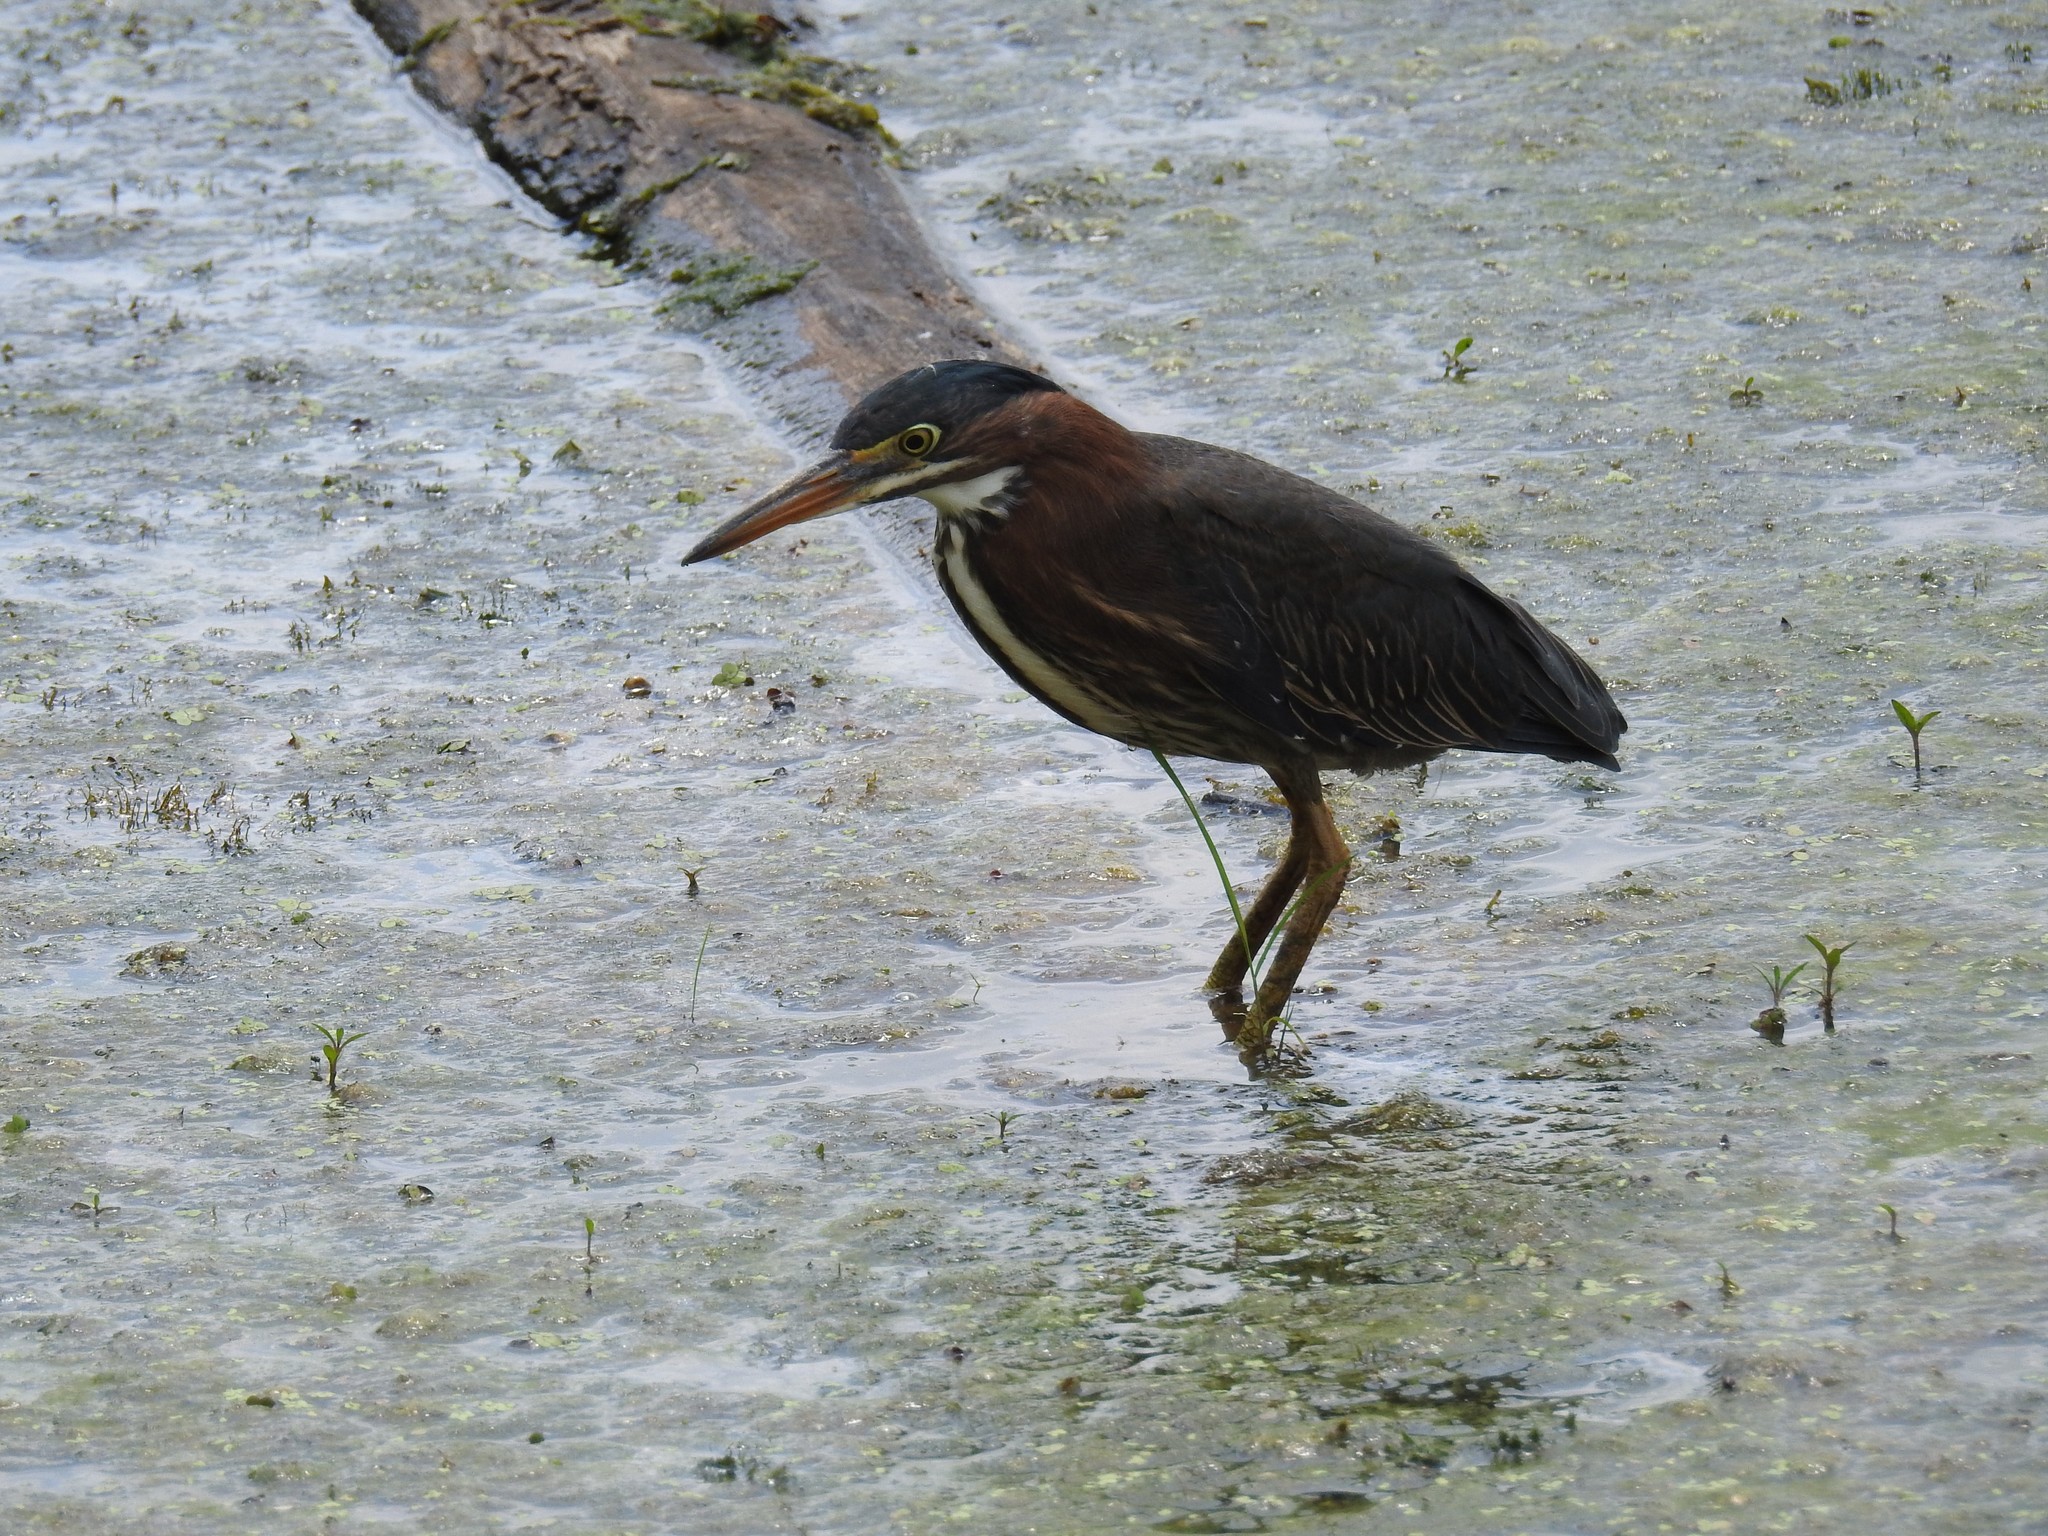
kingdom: Animalia
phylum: Chordata
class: Aves
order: Pelecaniformes
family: Ardeidae
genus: Butorides
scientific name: Butorides virescens
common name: Green heron
